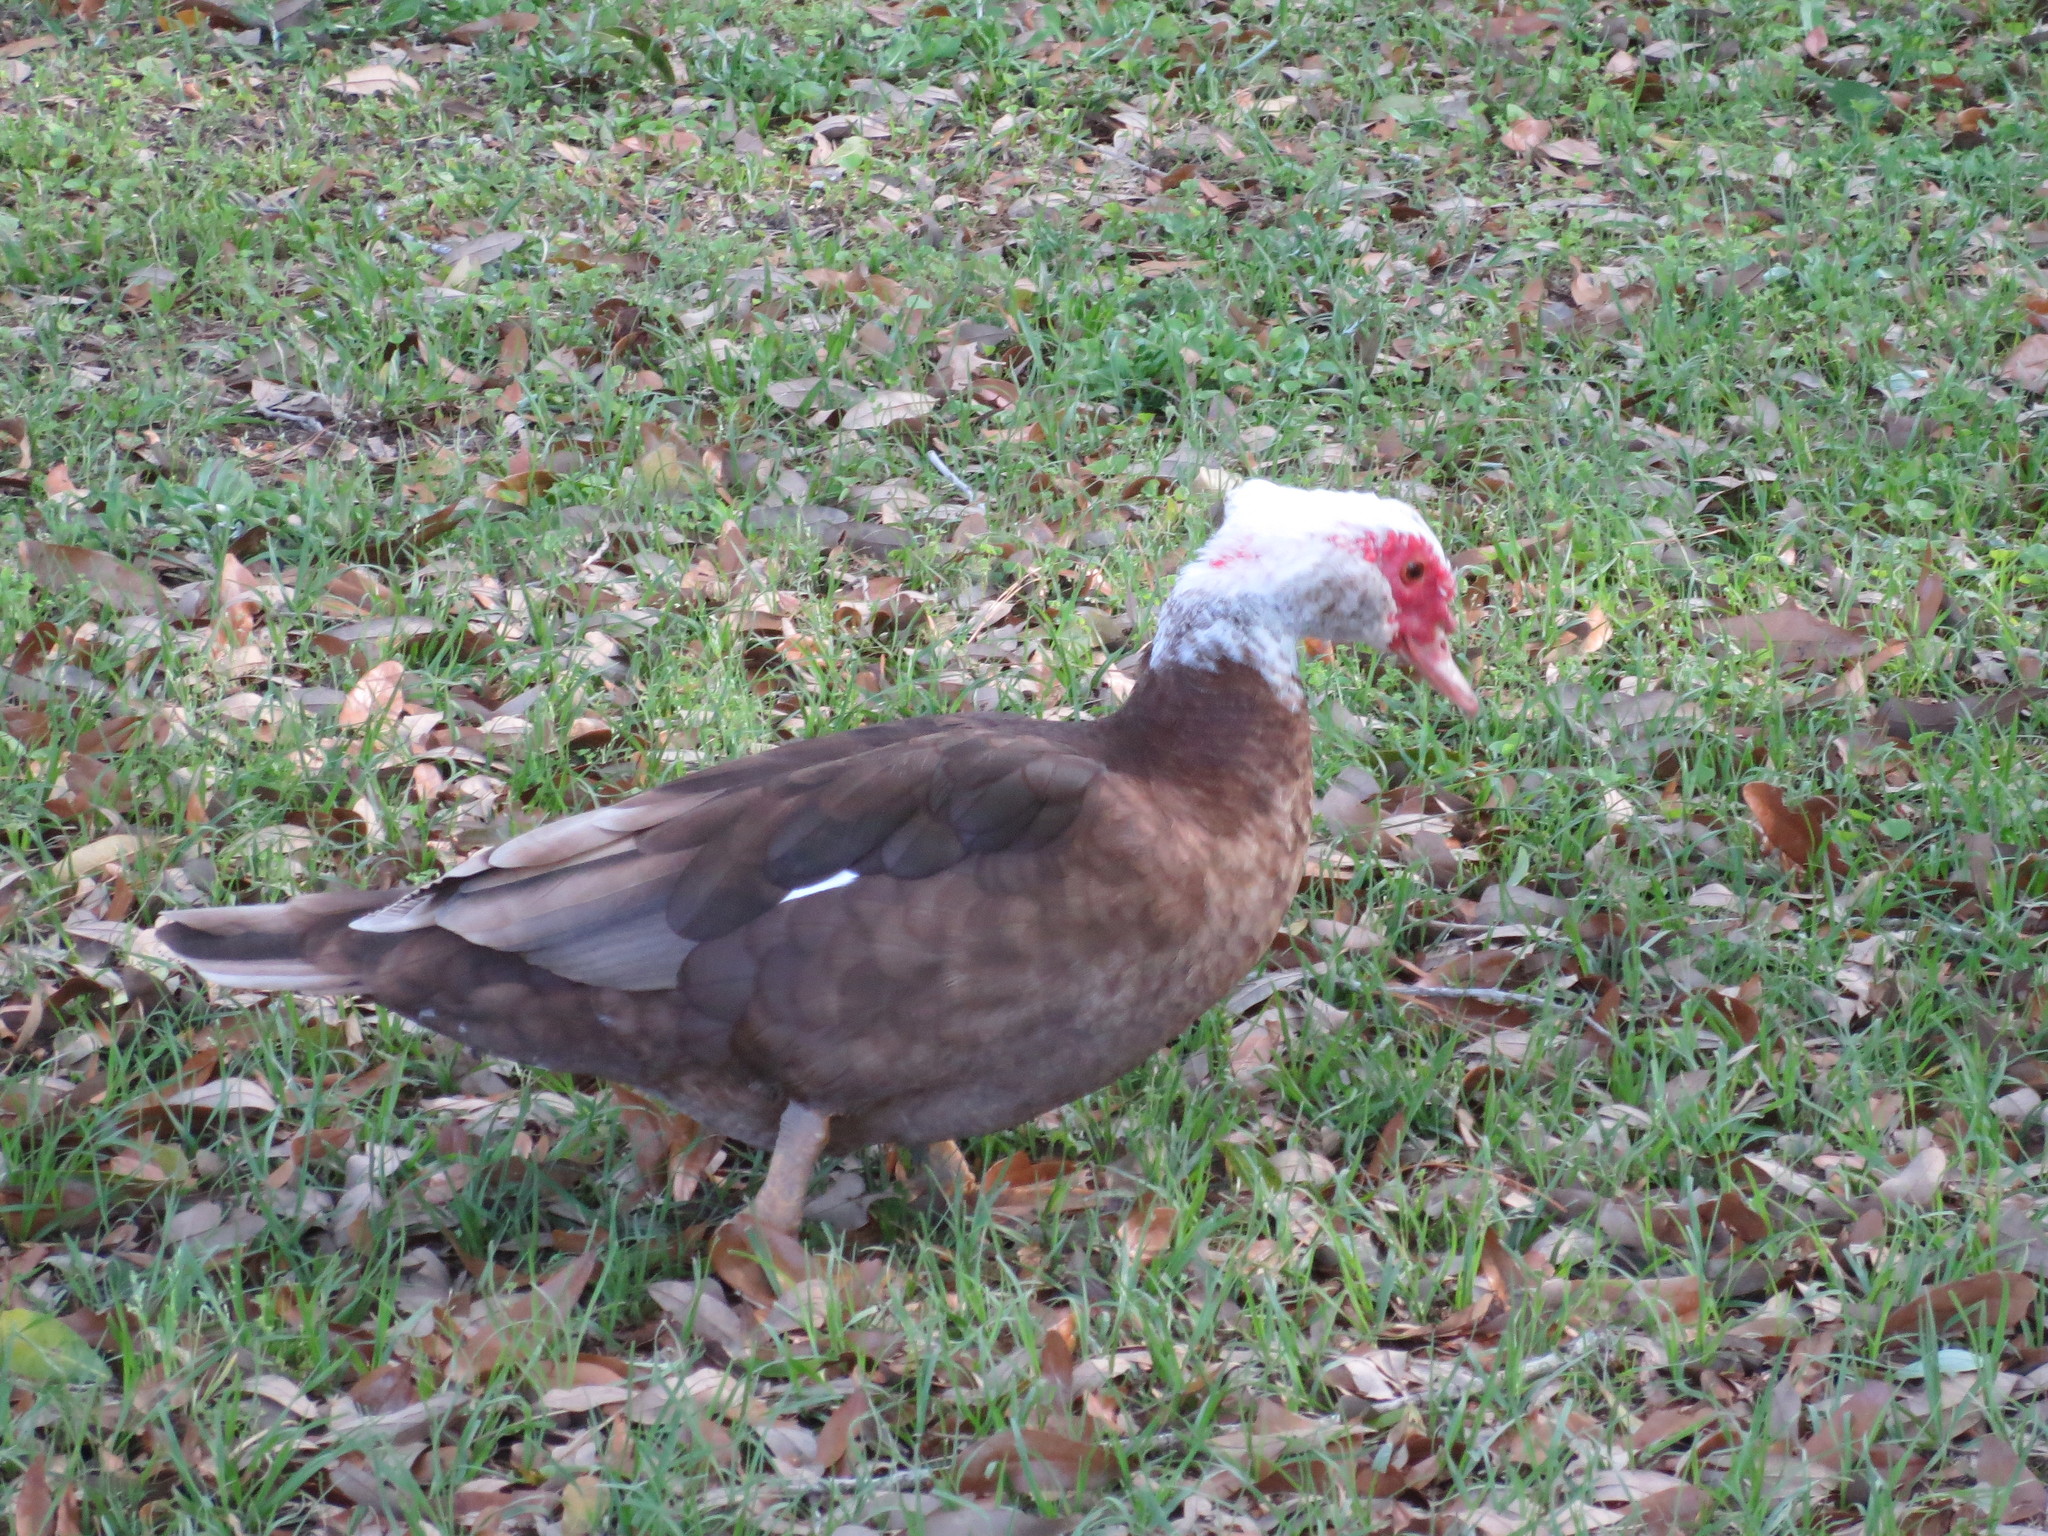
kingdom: Animalia
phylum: Chordata
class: Aves
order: Anseriformes
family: Anatidae
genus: Cairina
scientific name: Cairina moschata
